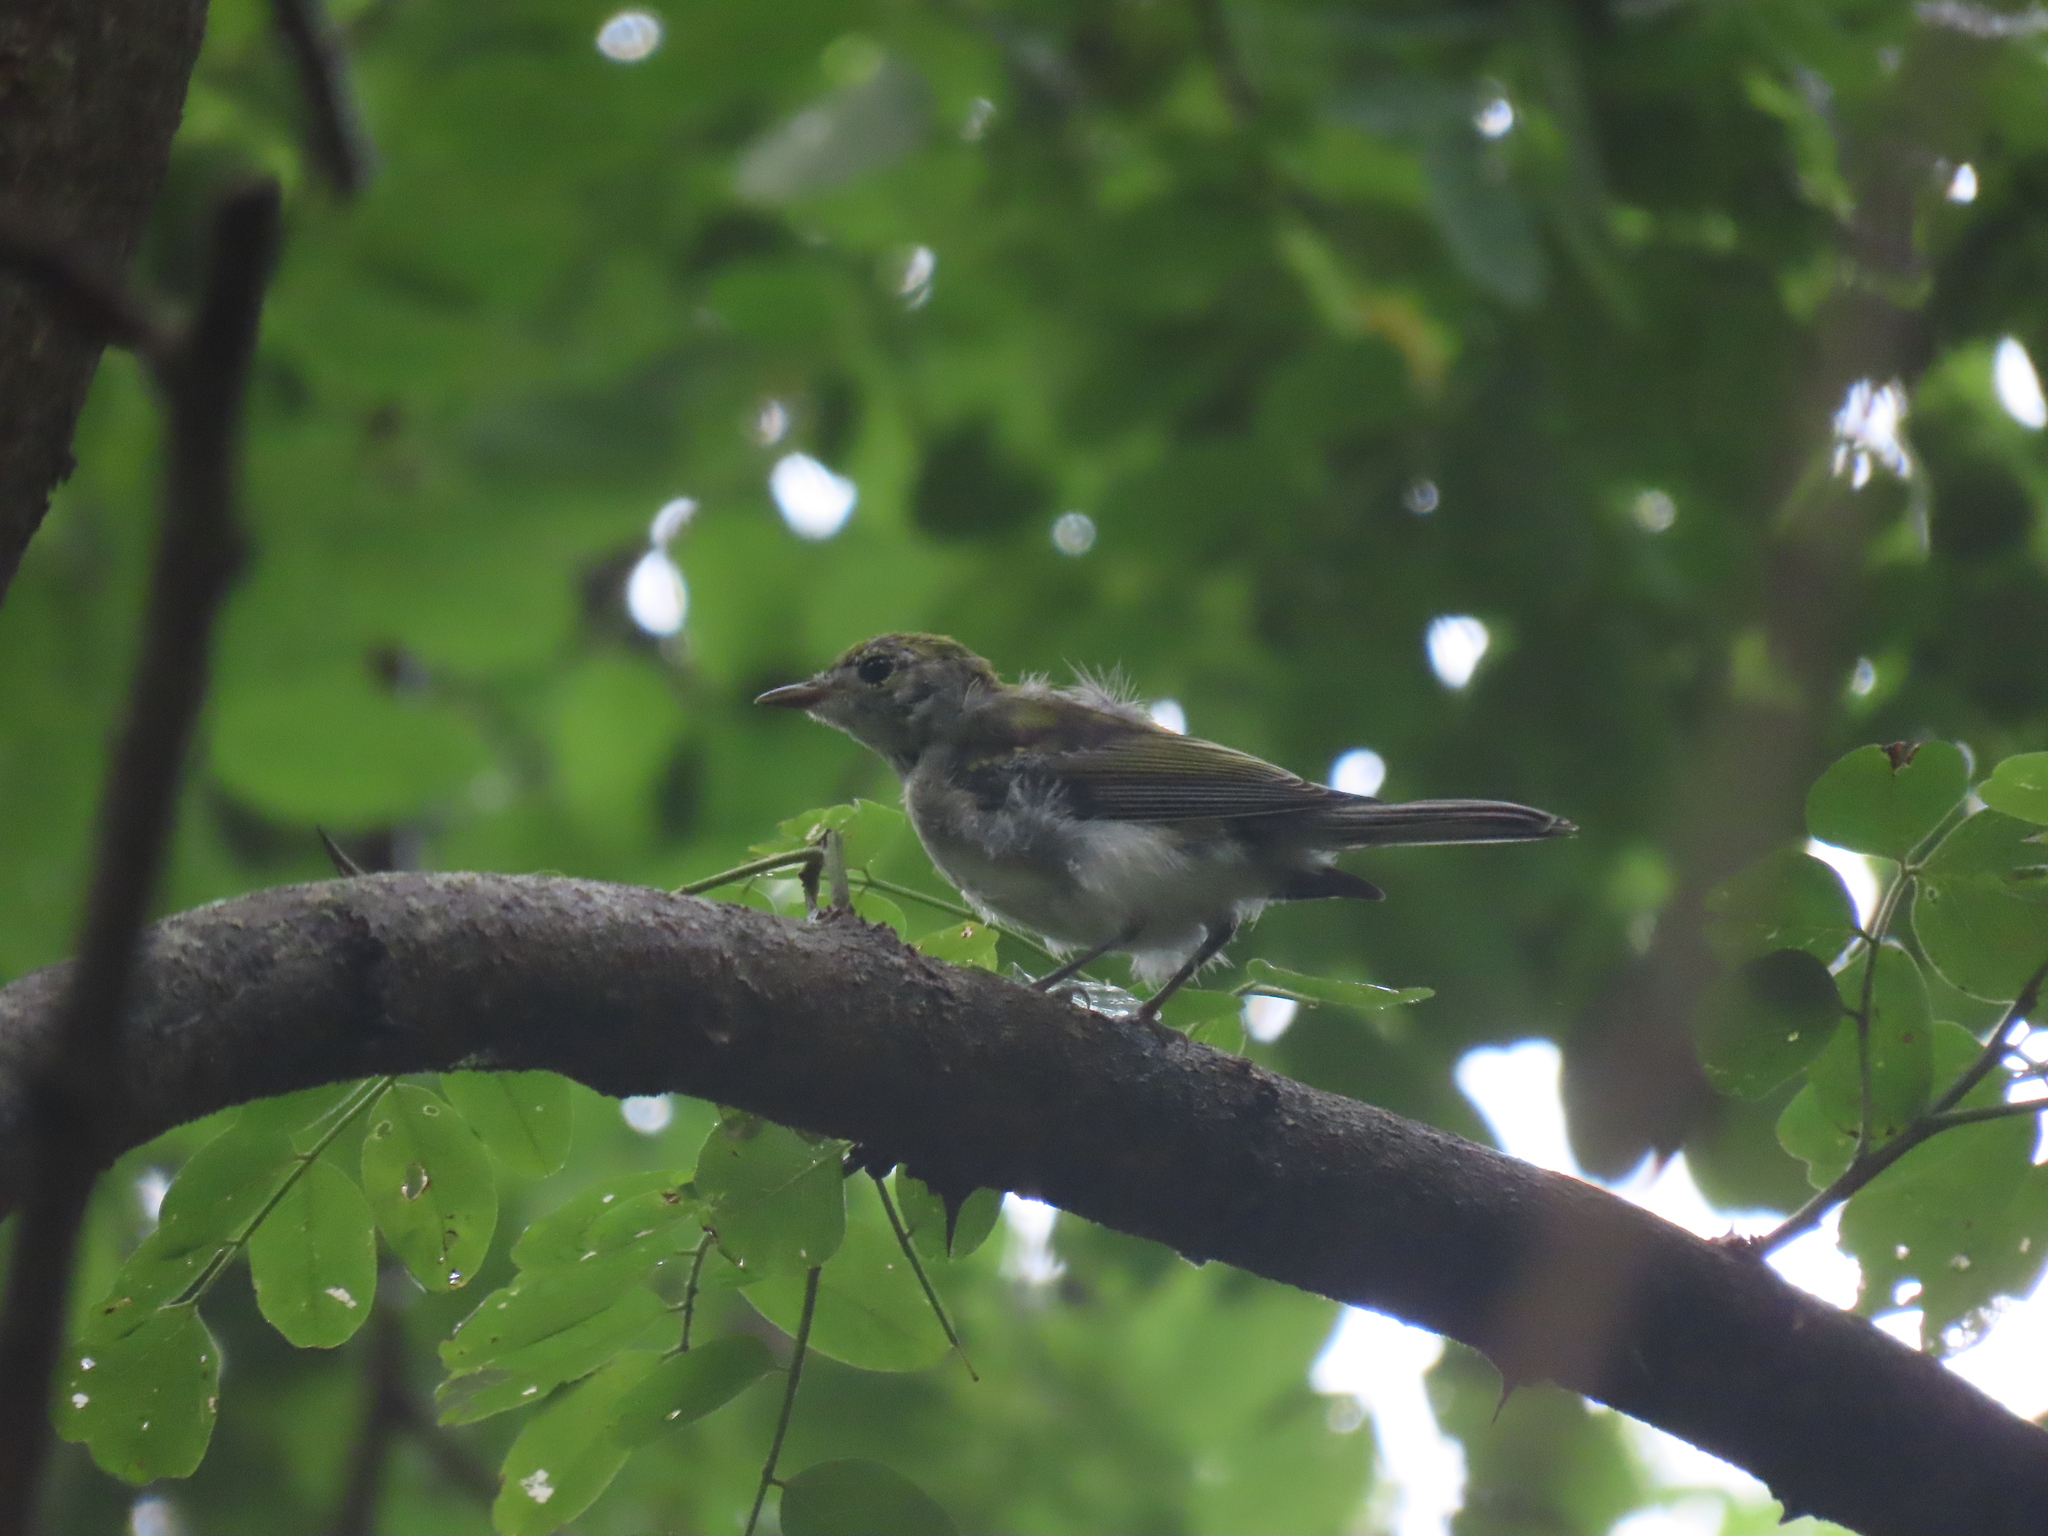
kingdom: Animalia
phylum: Chordata
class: Aves
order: Passeriformes
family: Parulidae
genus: Setophaga
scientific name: Setophaga pensylvanica
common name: Chestnut-sided warbler
